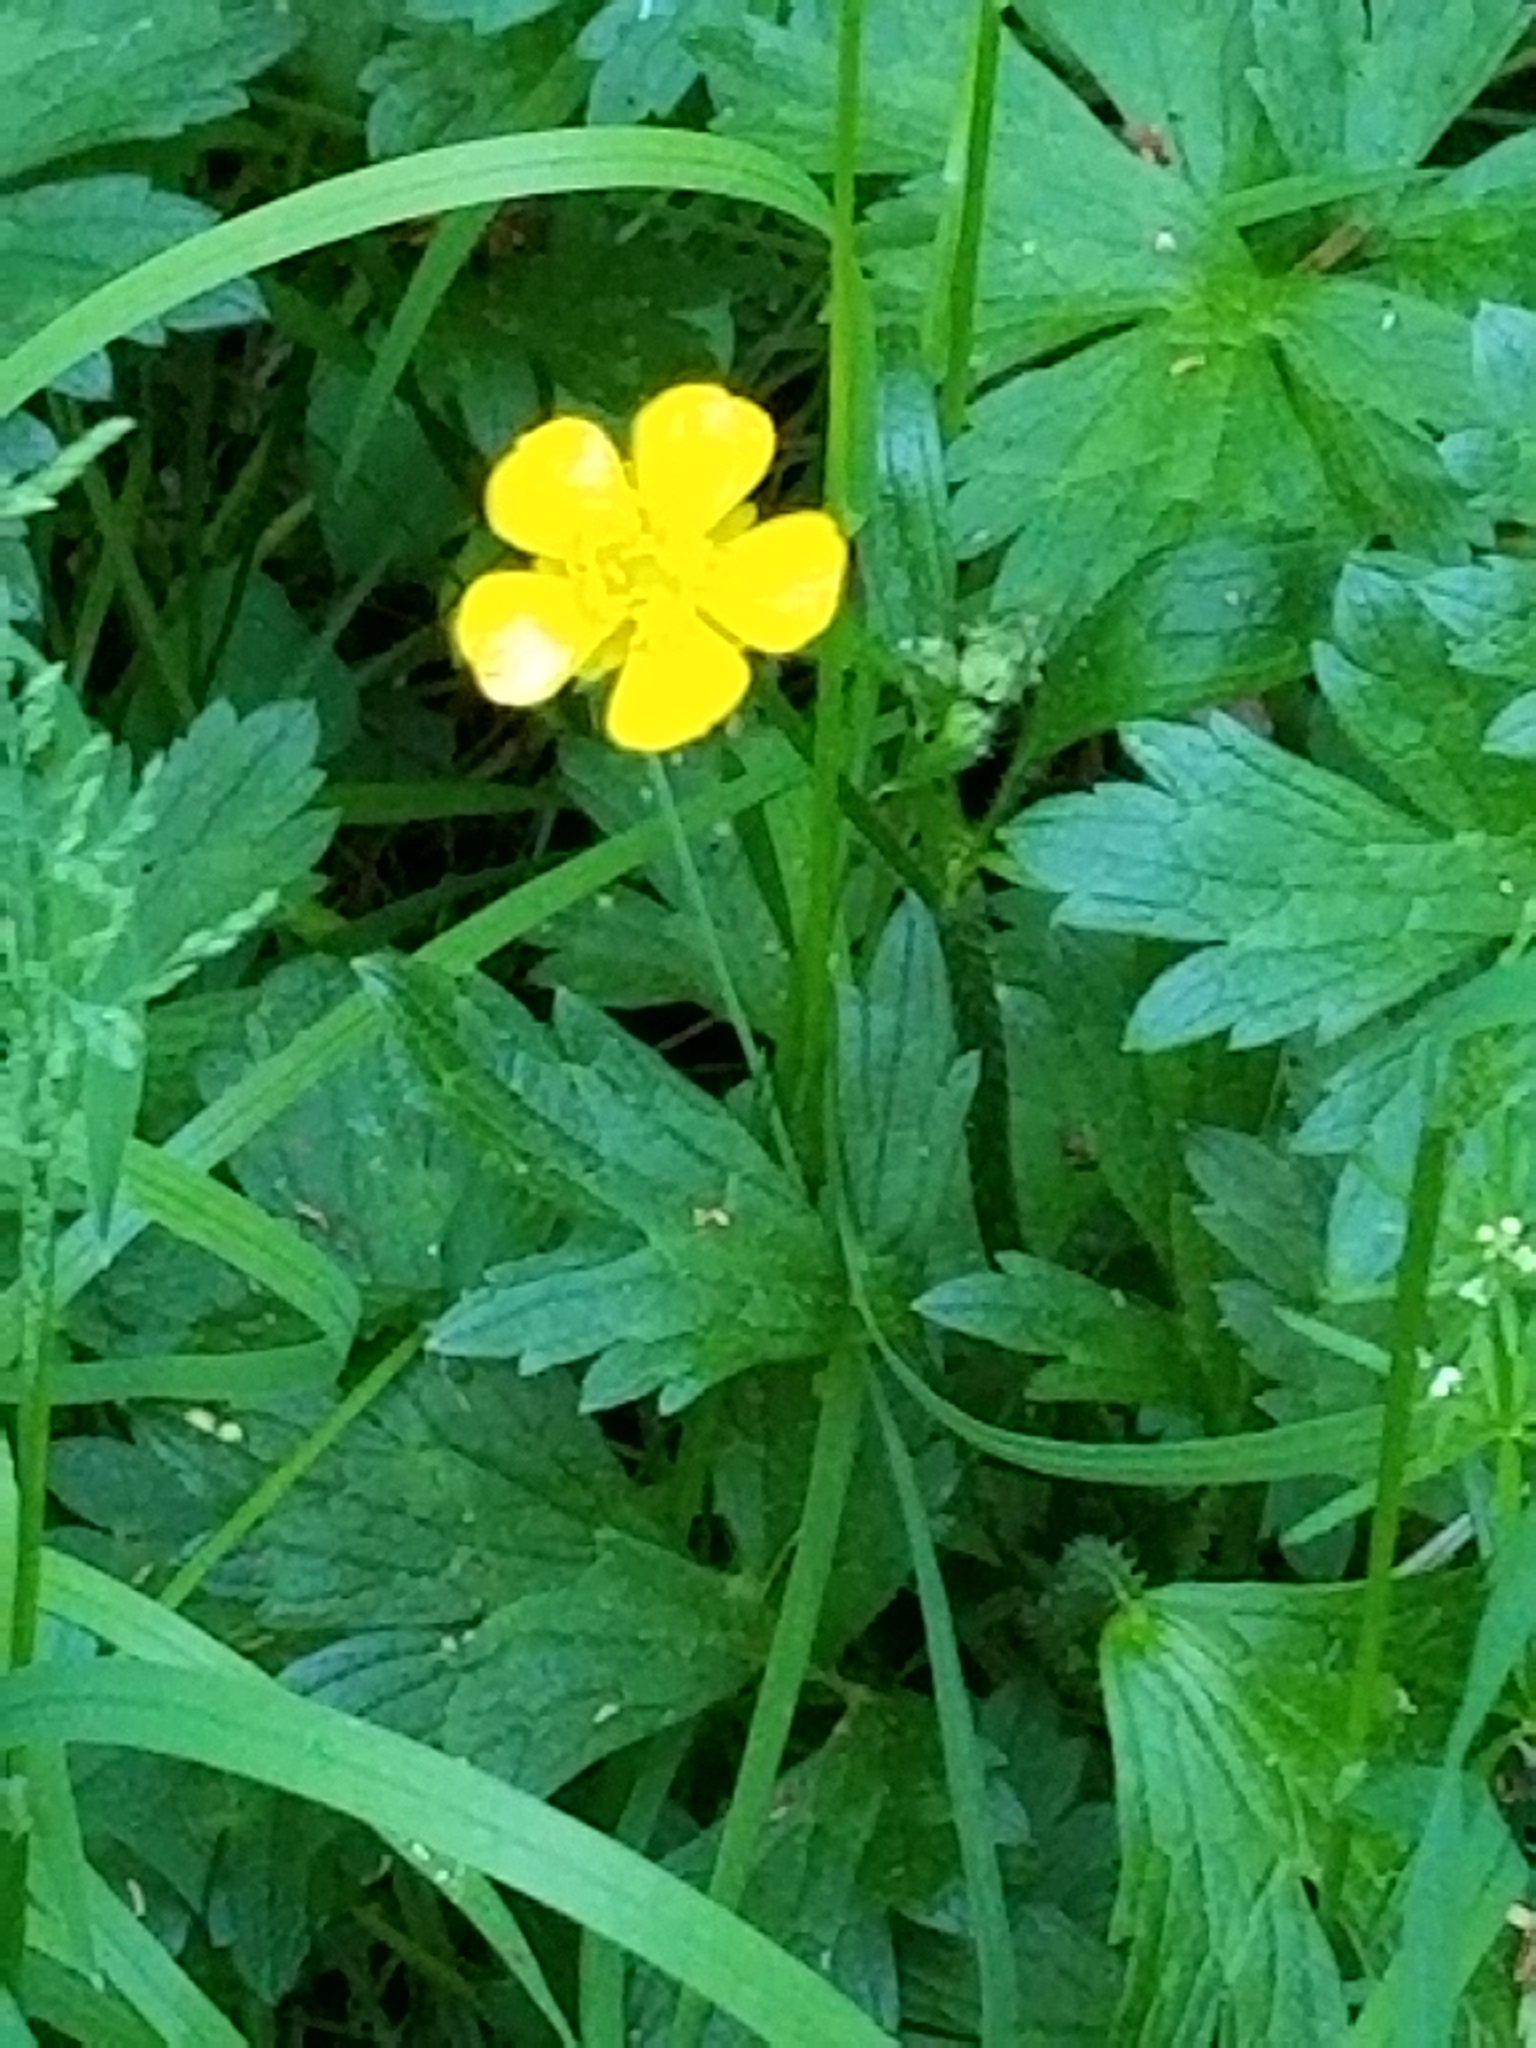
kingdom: Plantae
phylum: Tracheophyta
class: Magnoliopsida
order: Ranunculales
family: Ranunculaceae
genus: Ranunculus
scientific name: Ranunculus repens
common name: Creeping buttercup
